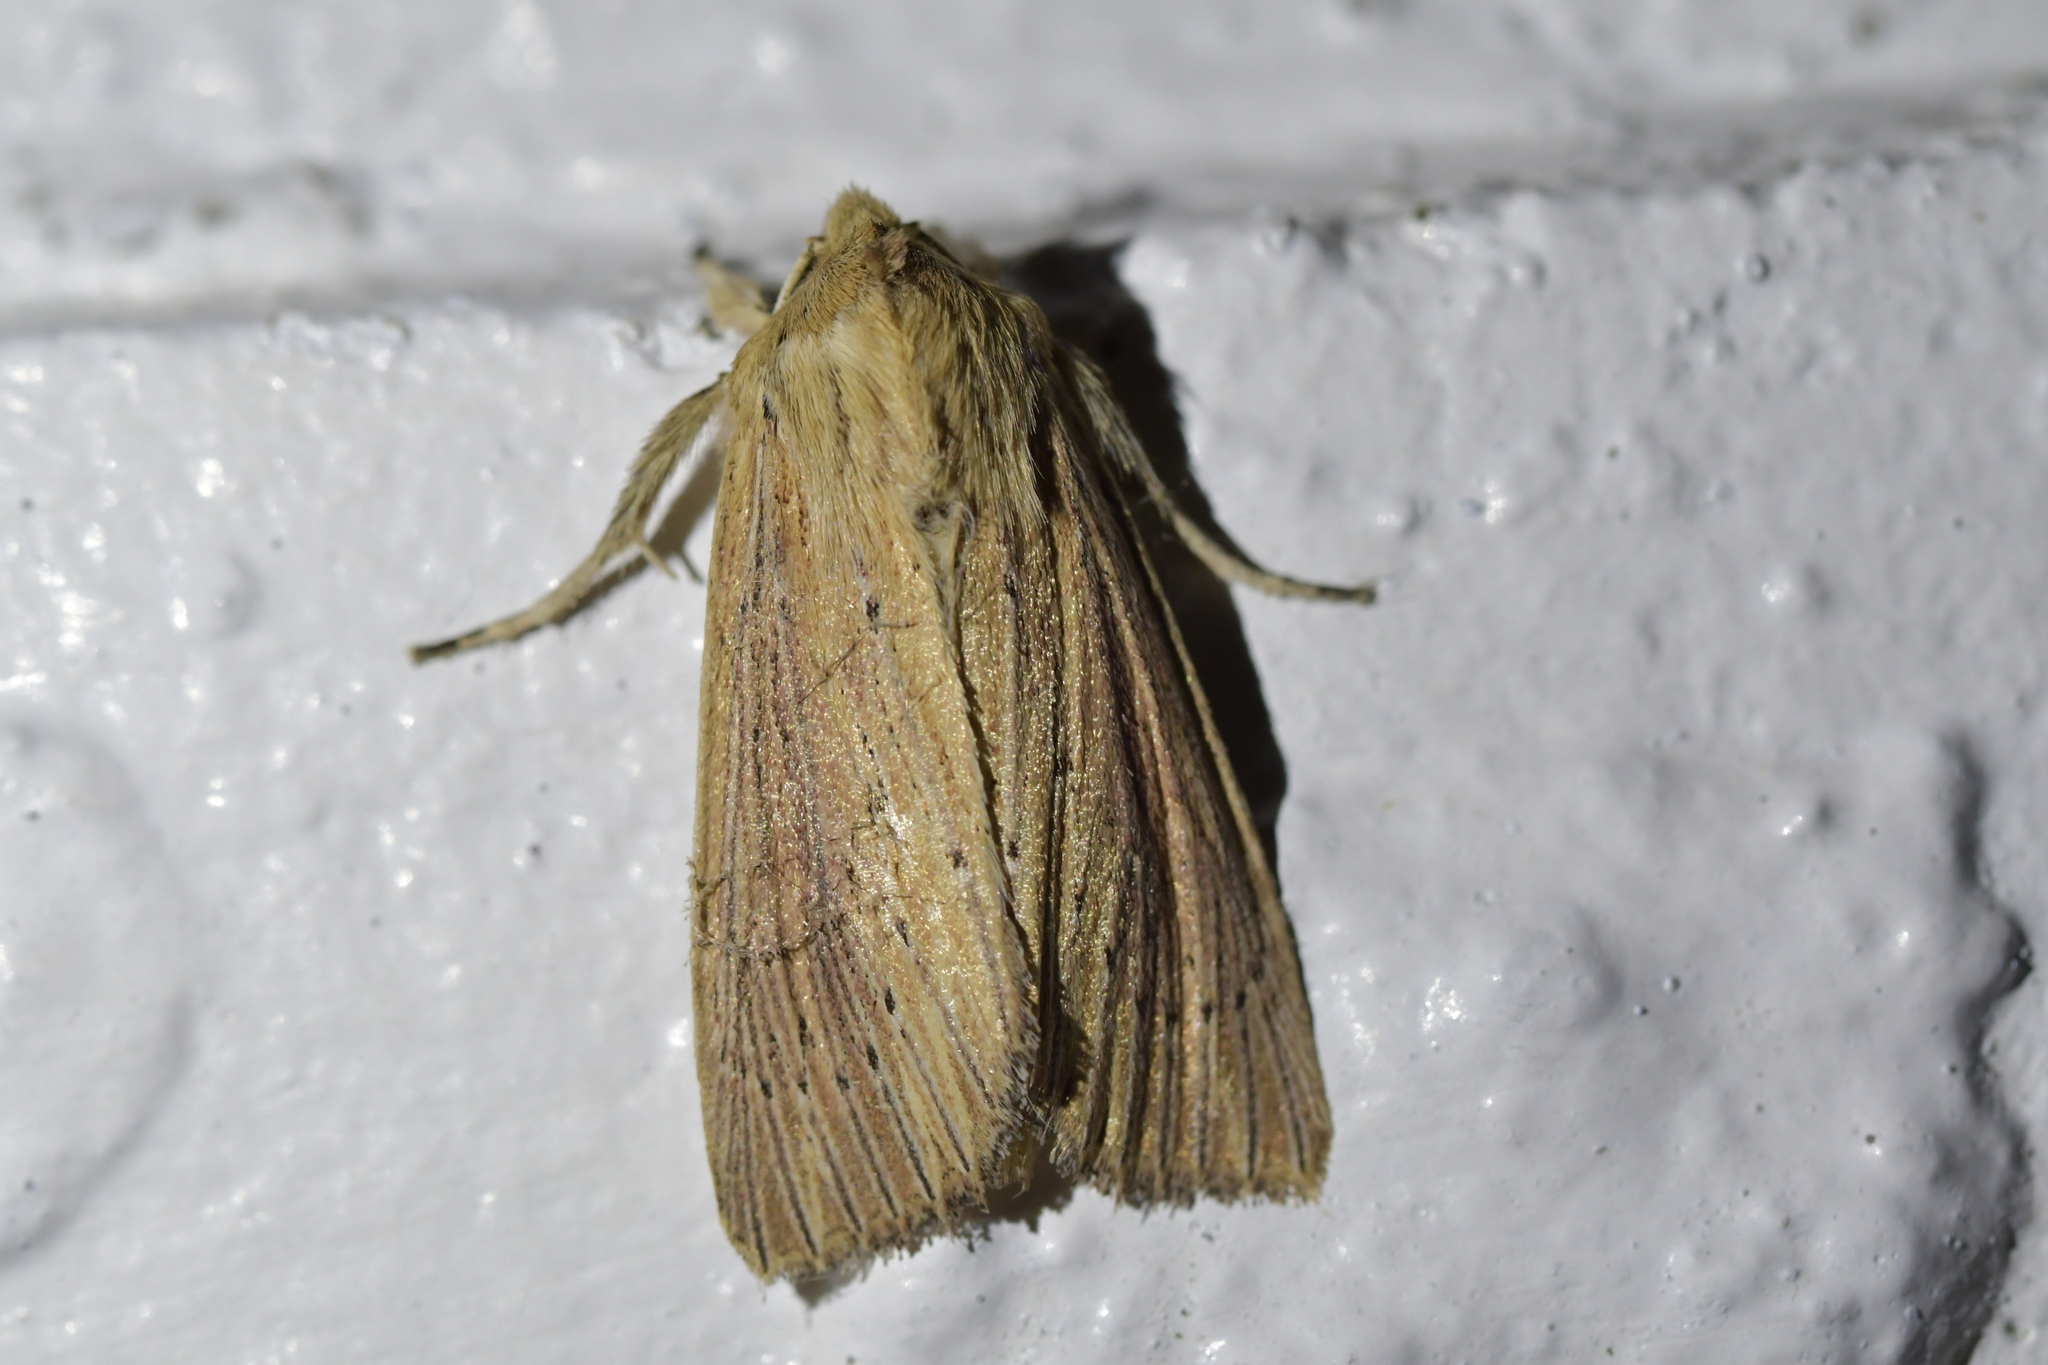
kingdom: Animalia
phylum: Arthropoda
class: Insecta
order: Lepidoptera
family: Noctuidae
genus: Ichneutica
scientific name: Ichneutica arotis
